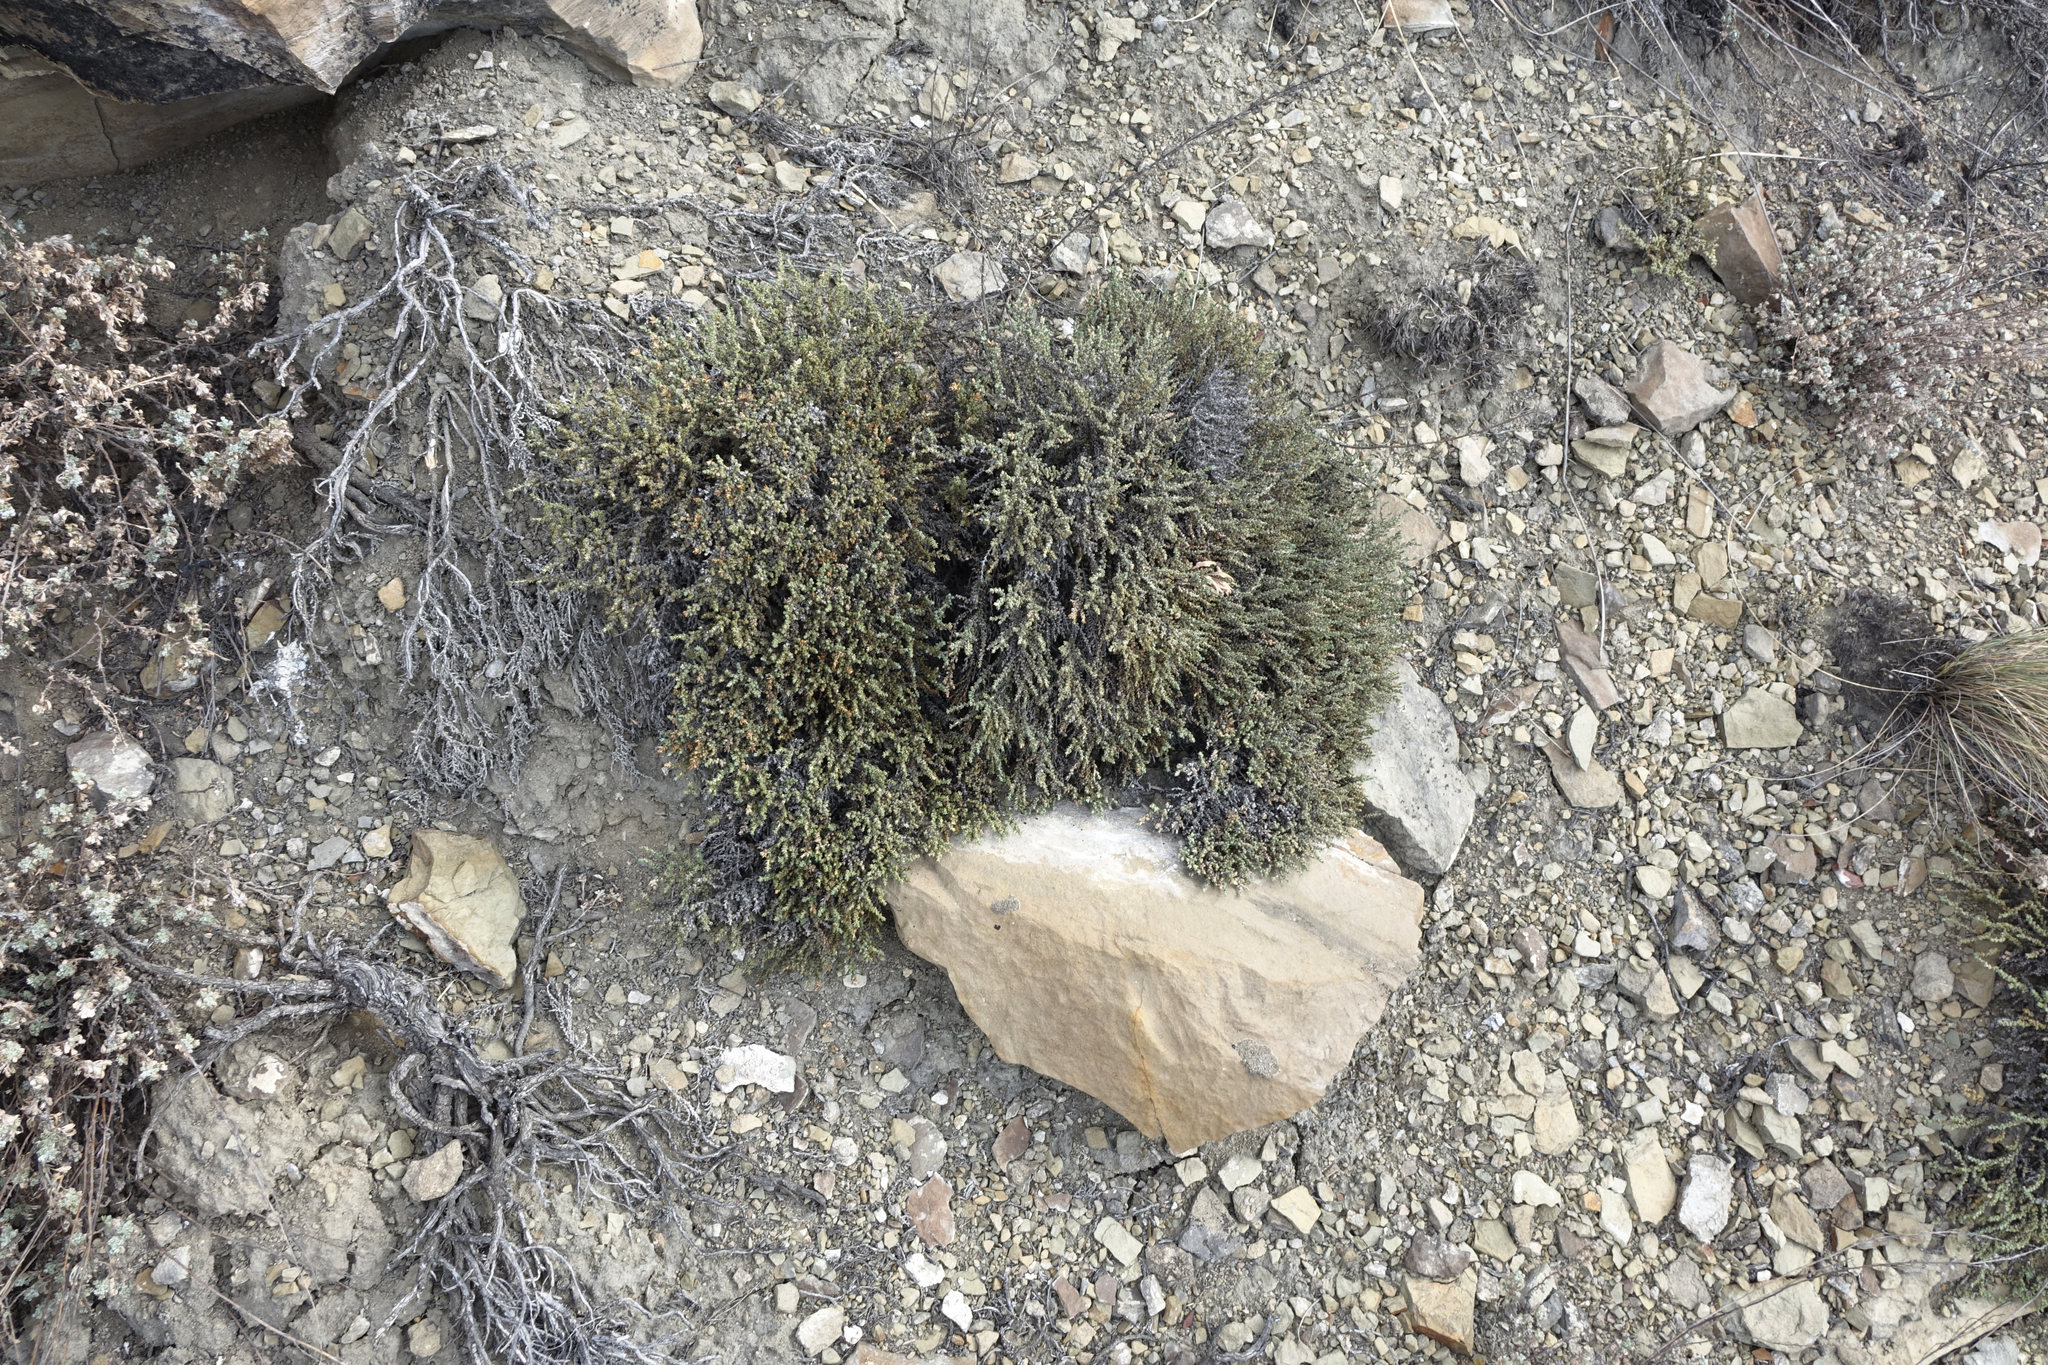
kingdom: Plantae
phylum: Tracheophyta
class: Magnoliopsida
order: Caryophyllales
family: Amaranthaceae
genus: Nanophyton
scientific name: Nanophyton grubovii
